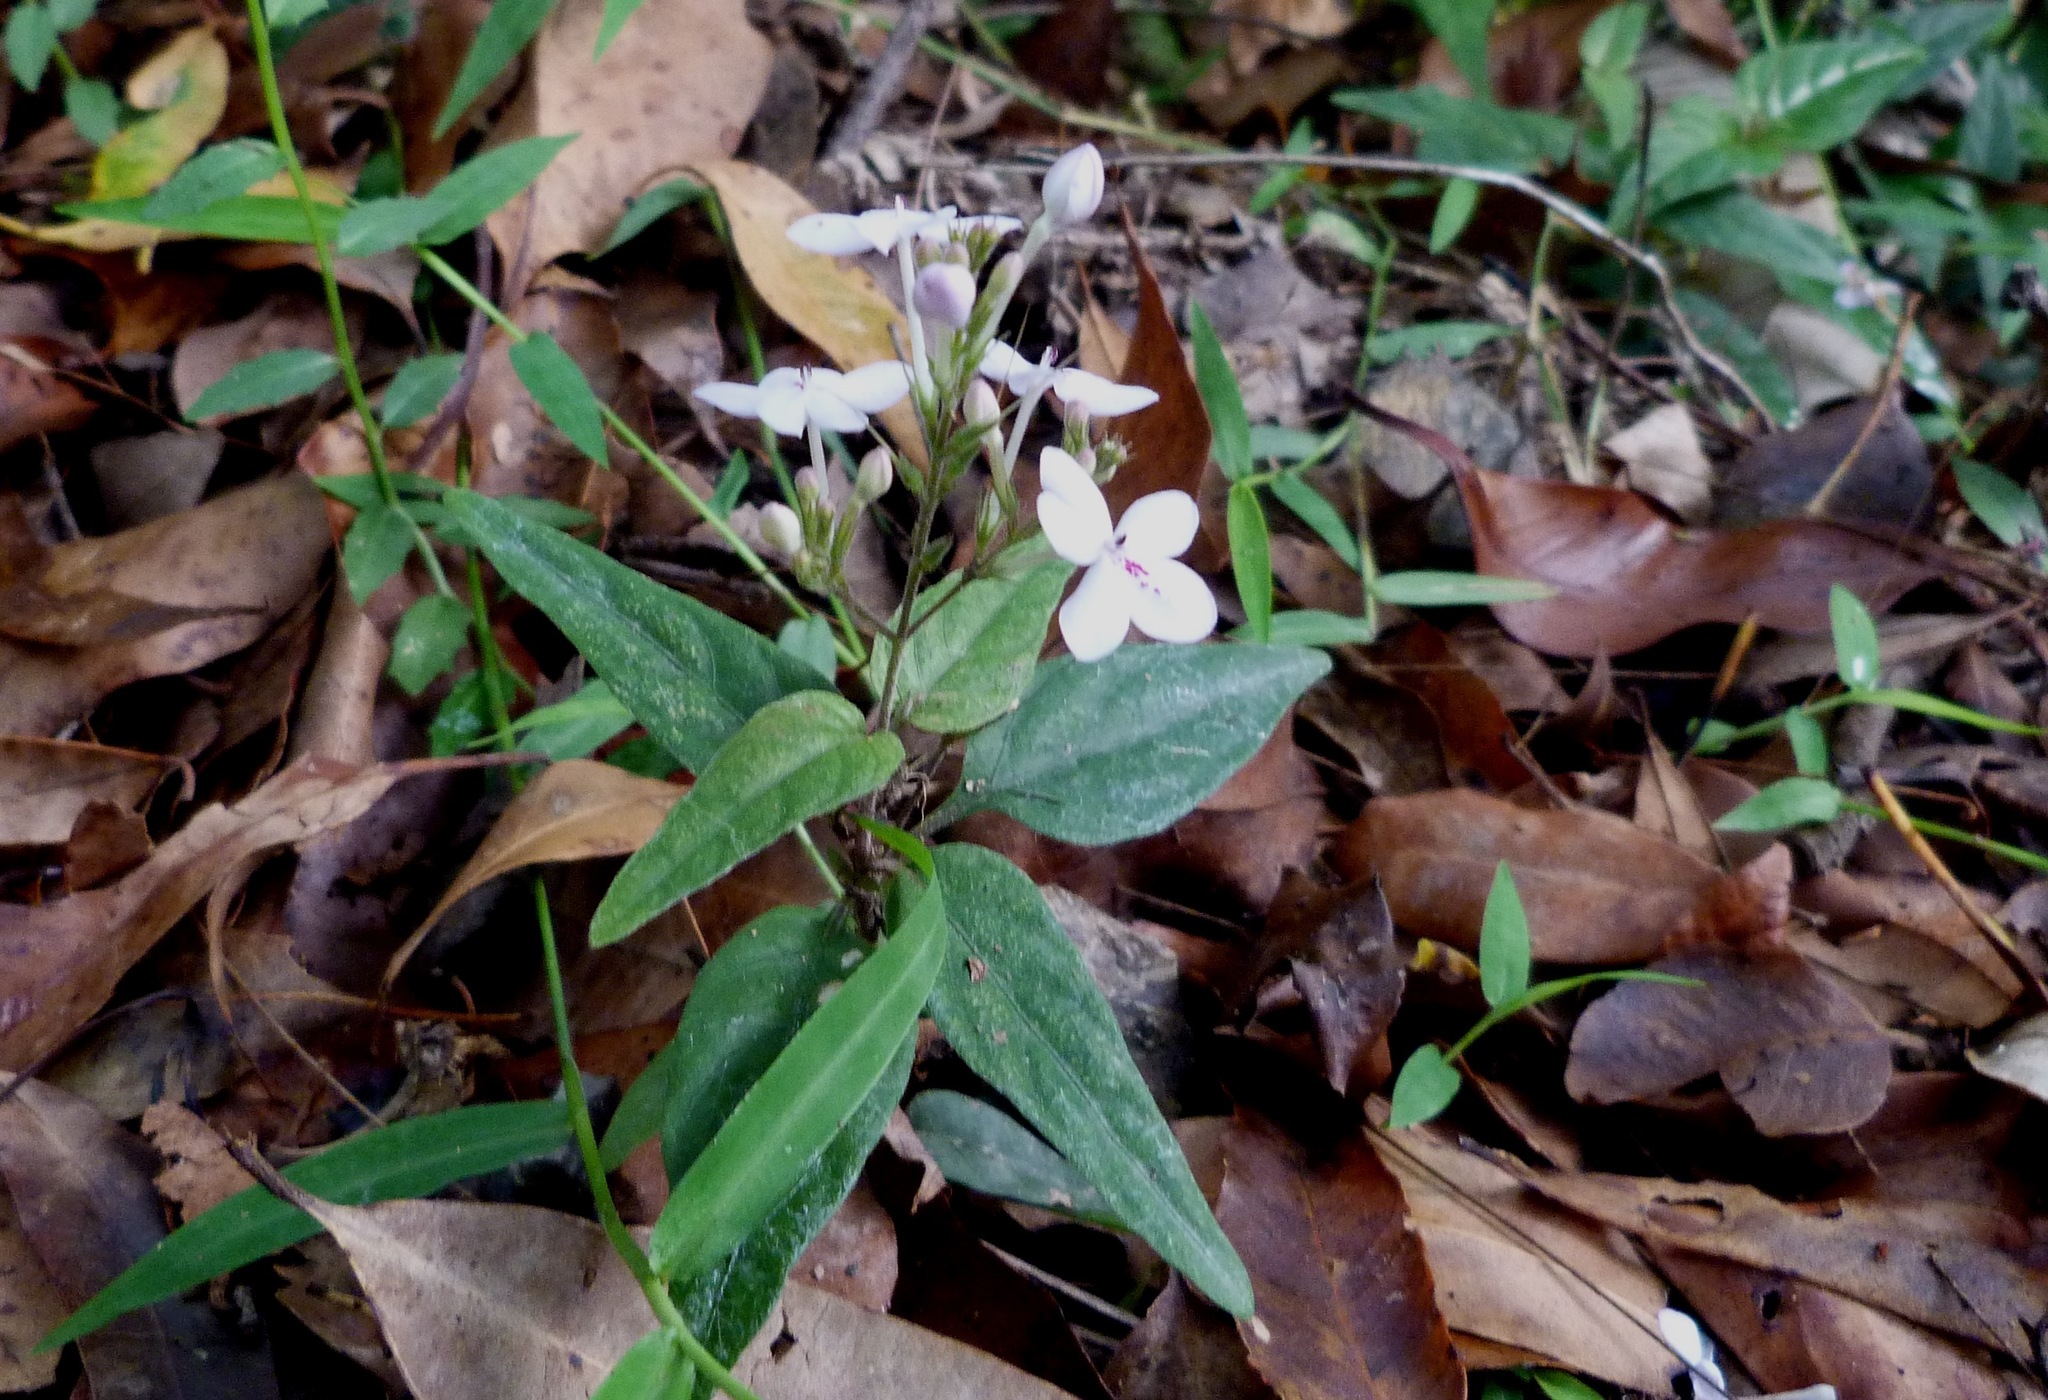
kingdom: Plantae
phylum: Tracheophyta
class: Magnoliopsida
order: Lamiales
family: Acanthaceae
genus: Pseuderanthemum
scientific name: Pseuderanthemum variabile
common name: Night and afternoon
